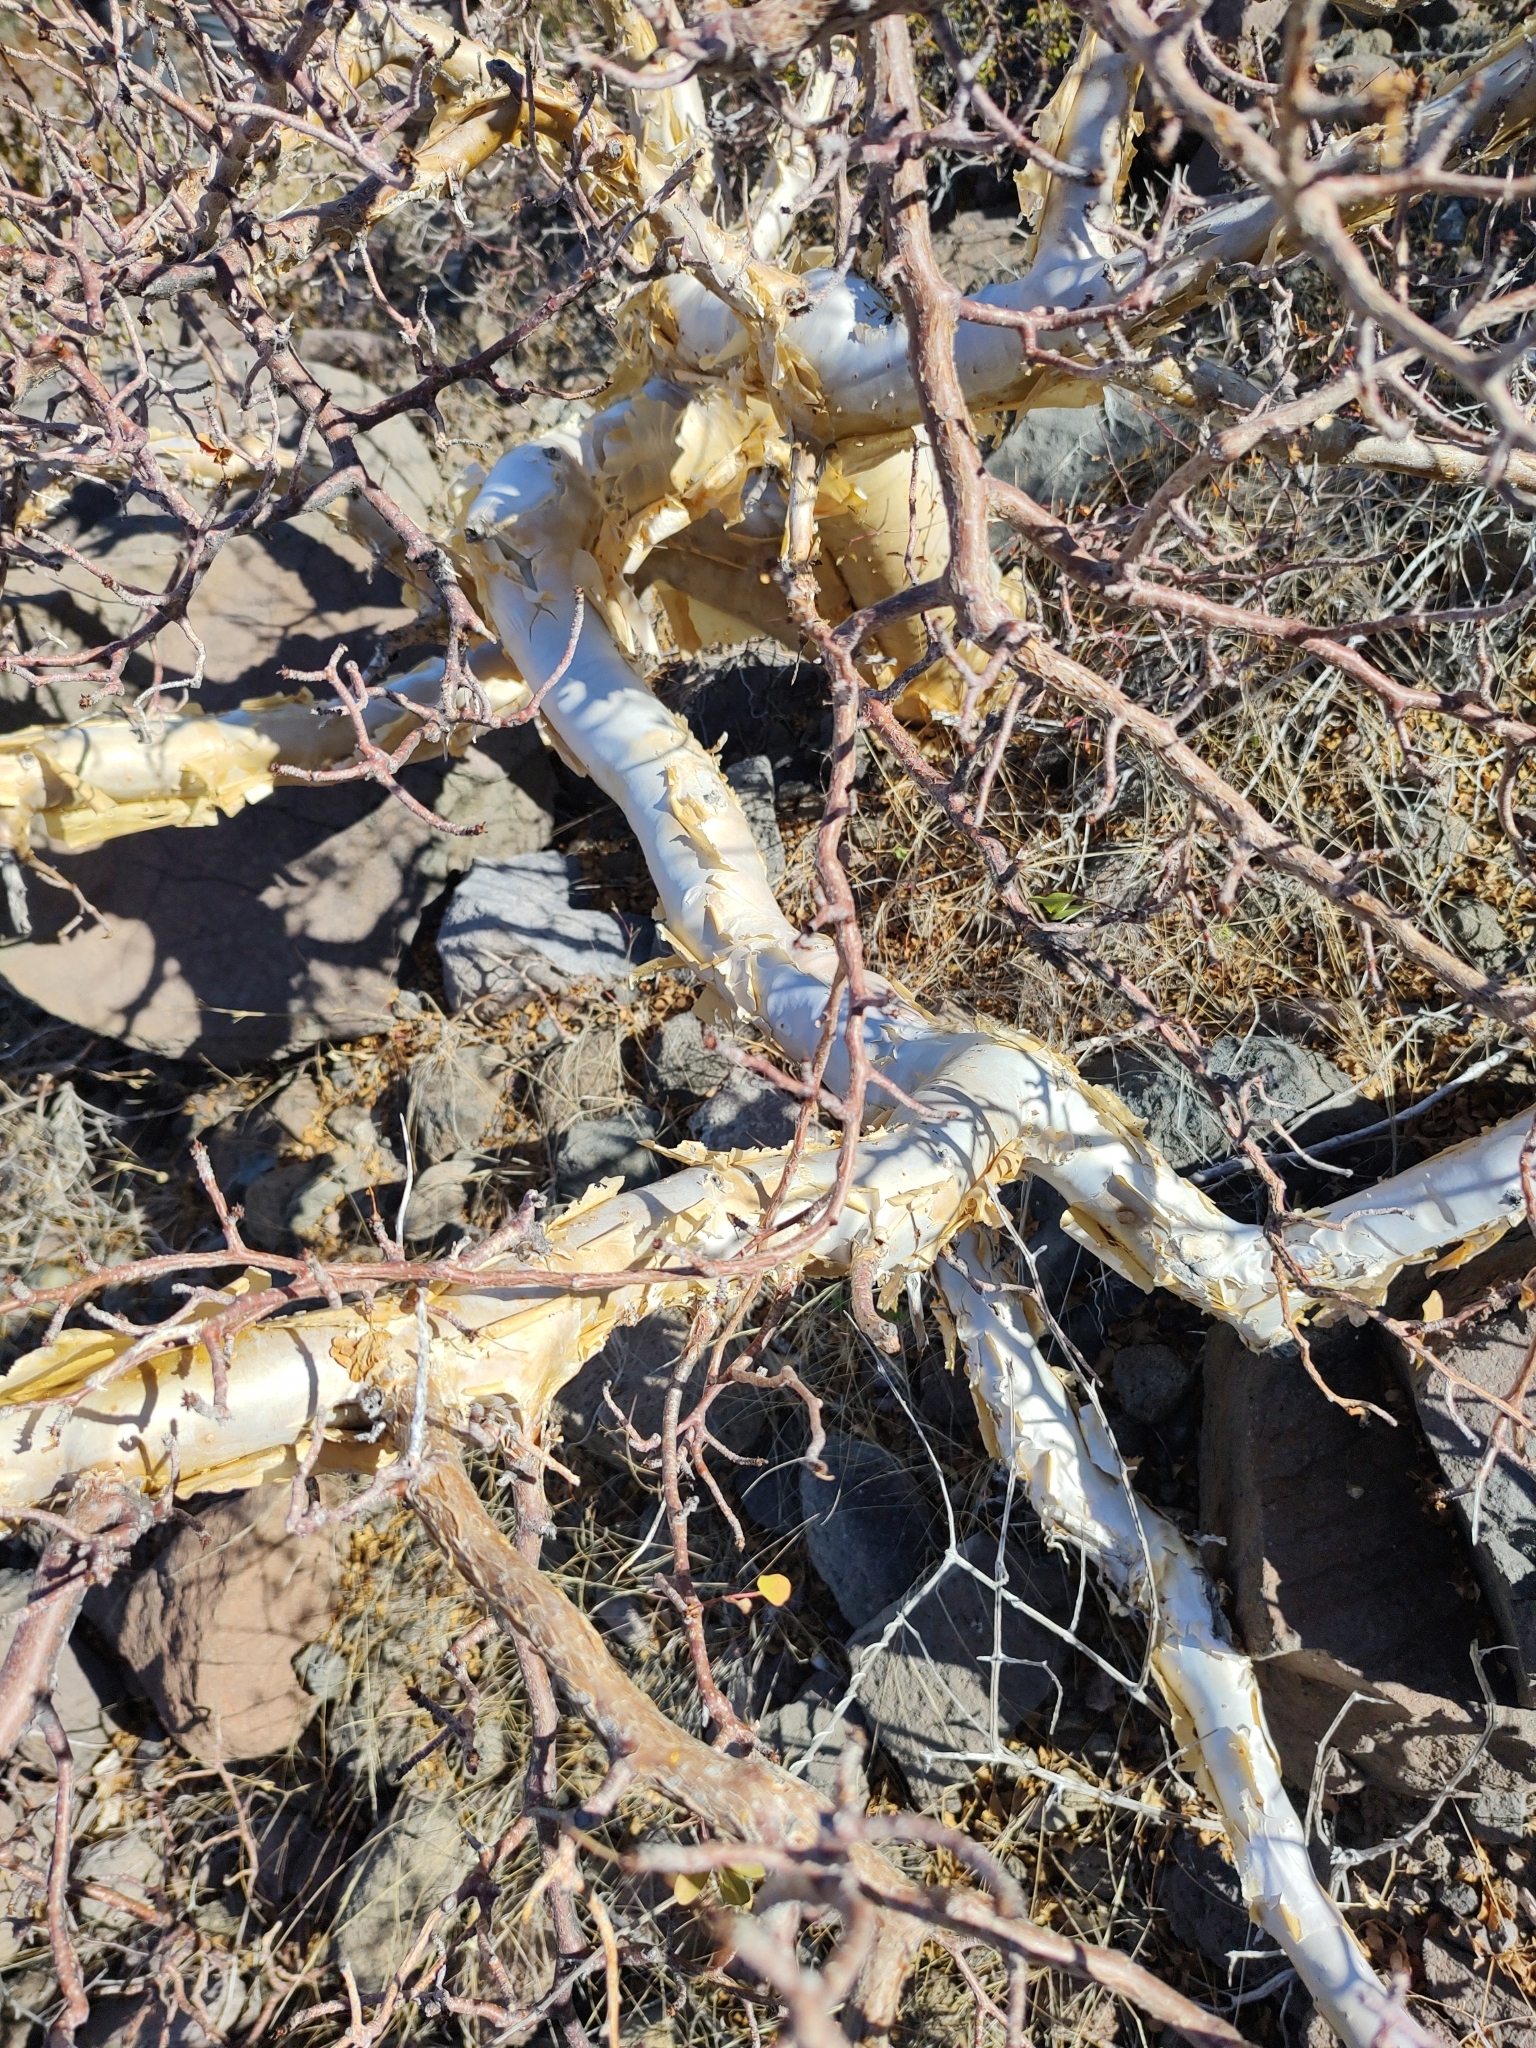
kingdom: Plantae
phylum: Tracheophyta
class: Magnoliopsida
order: Sapindales
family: Burseraceae
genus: Bursera
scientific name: Bursera fagaroides
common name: Elephant tree
